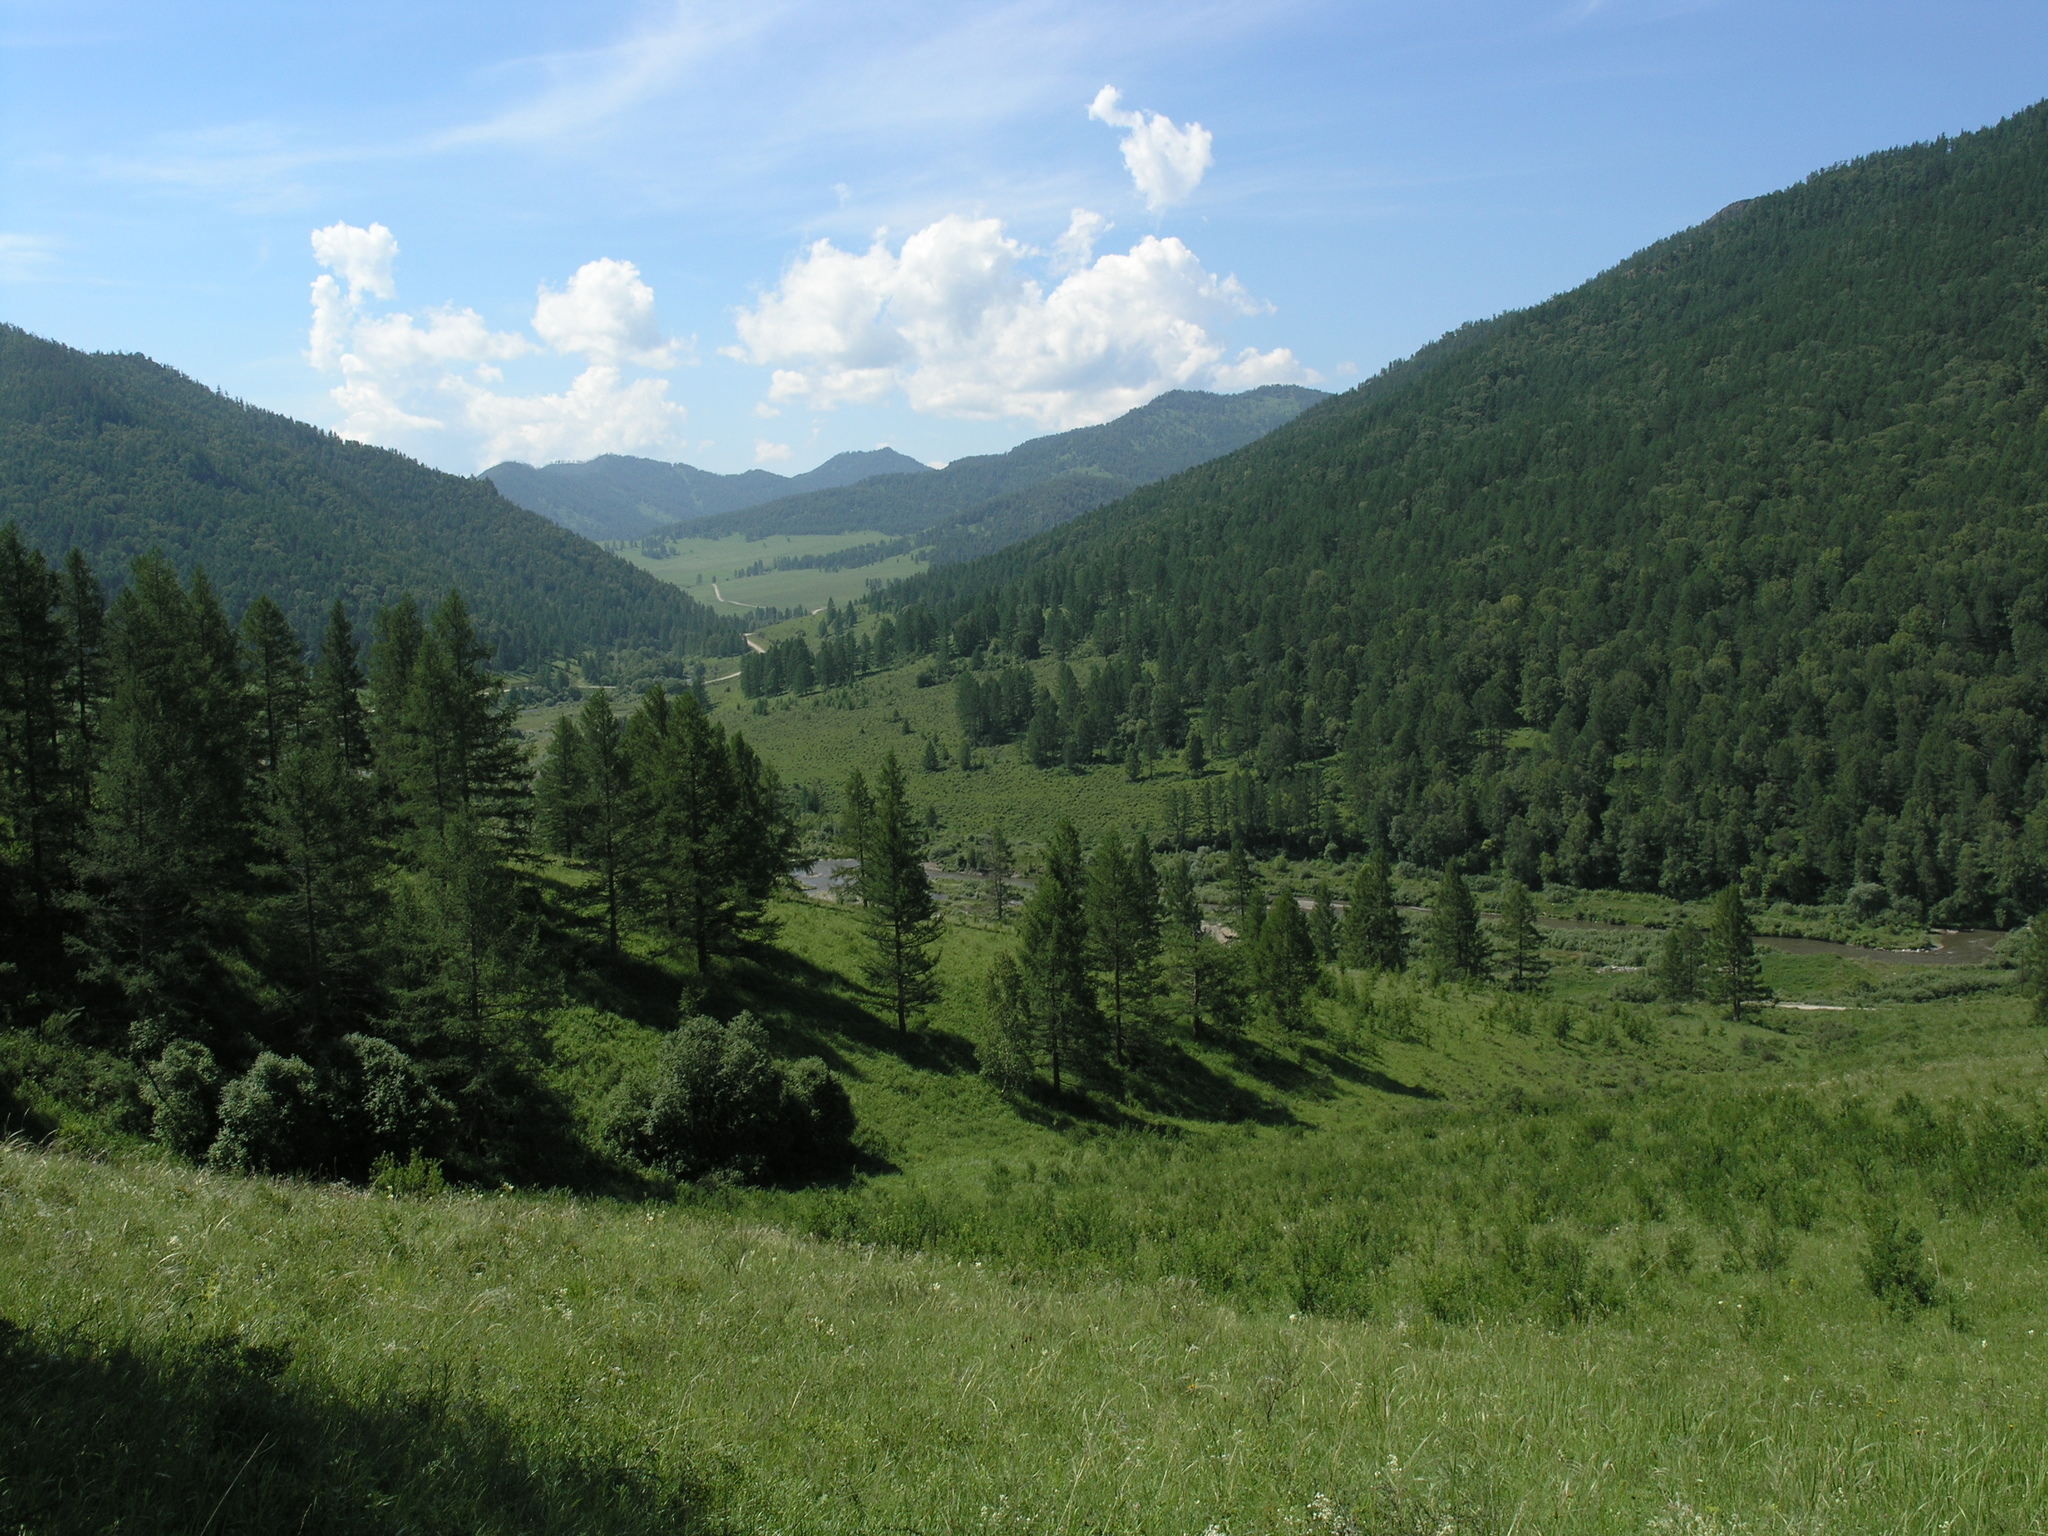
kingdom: Plantae
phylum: Tracheophyta
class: Pinopsida
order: Pinales
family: Pinaceae
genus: Larix
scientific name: Larix sibirica
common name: Siberian larch
